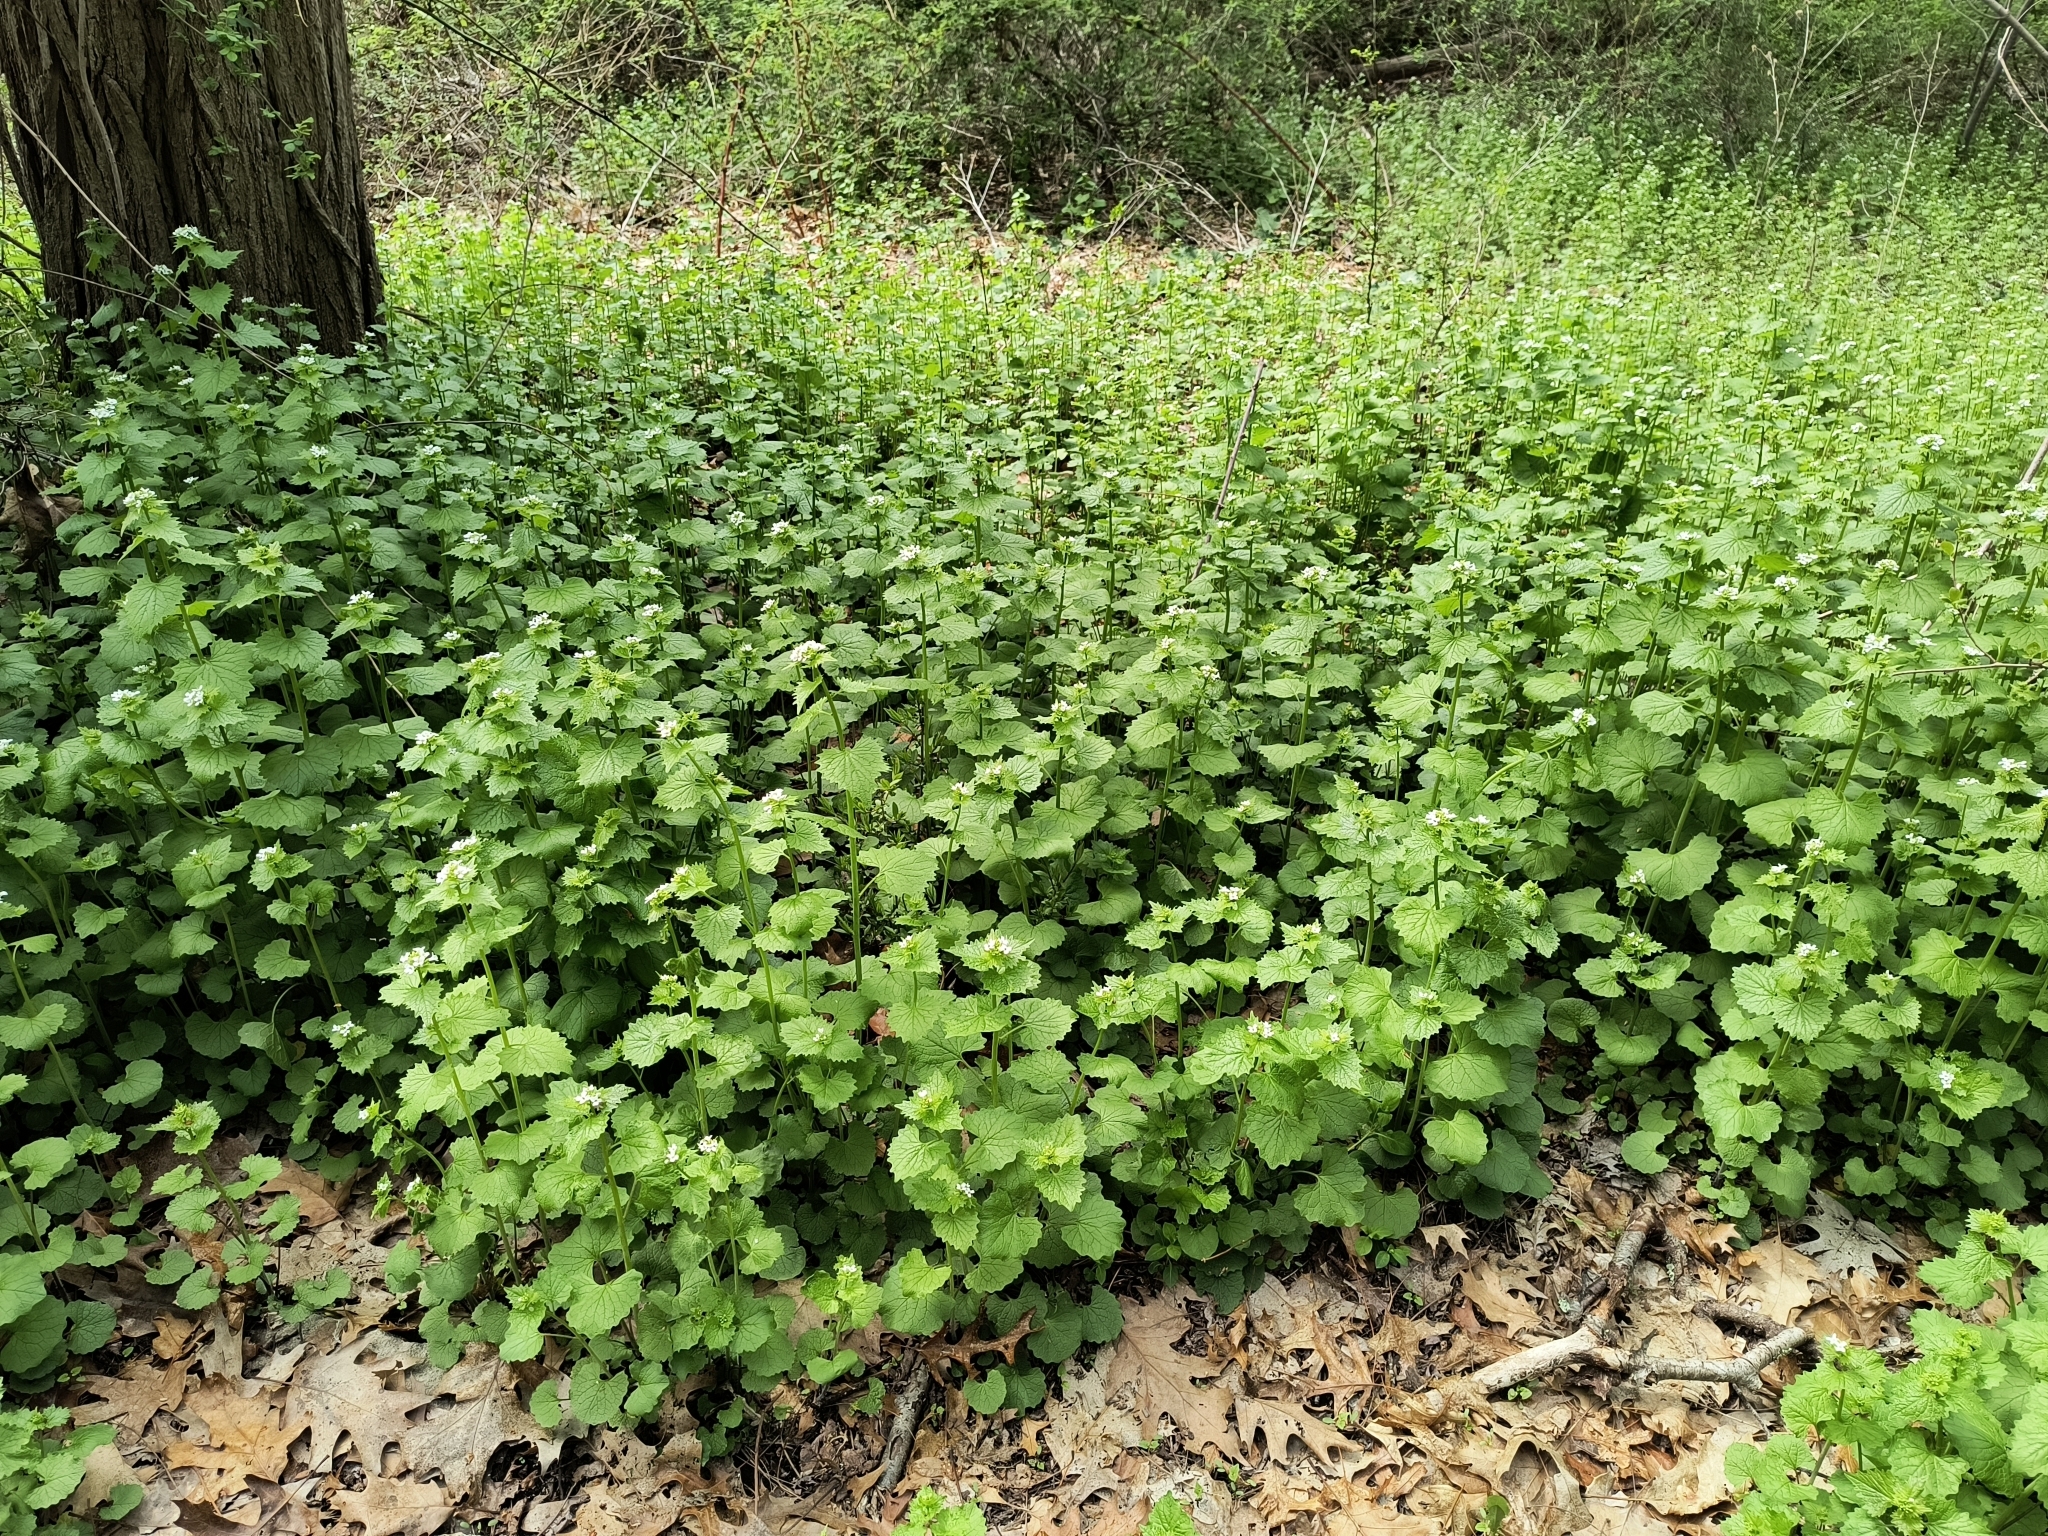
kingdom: Plantae
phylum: Tracheophyta
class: Magnoliopsida
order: Brassicales
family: Brassicaceae
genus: Alliaria
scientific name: Alliaria petiolata
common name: Garlic mustard
